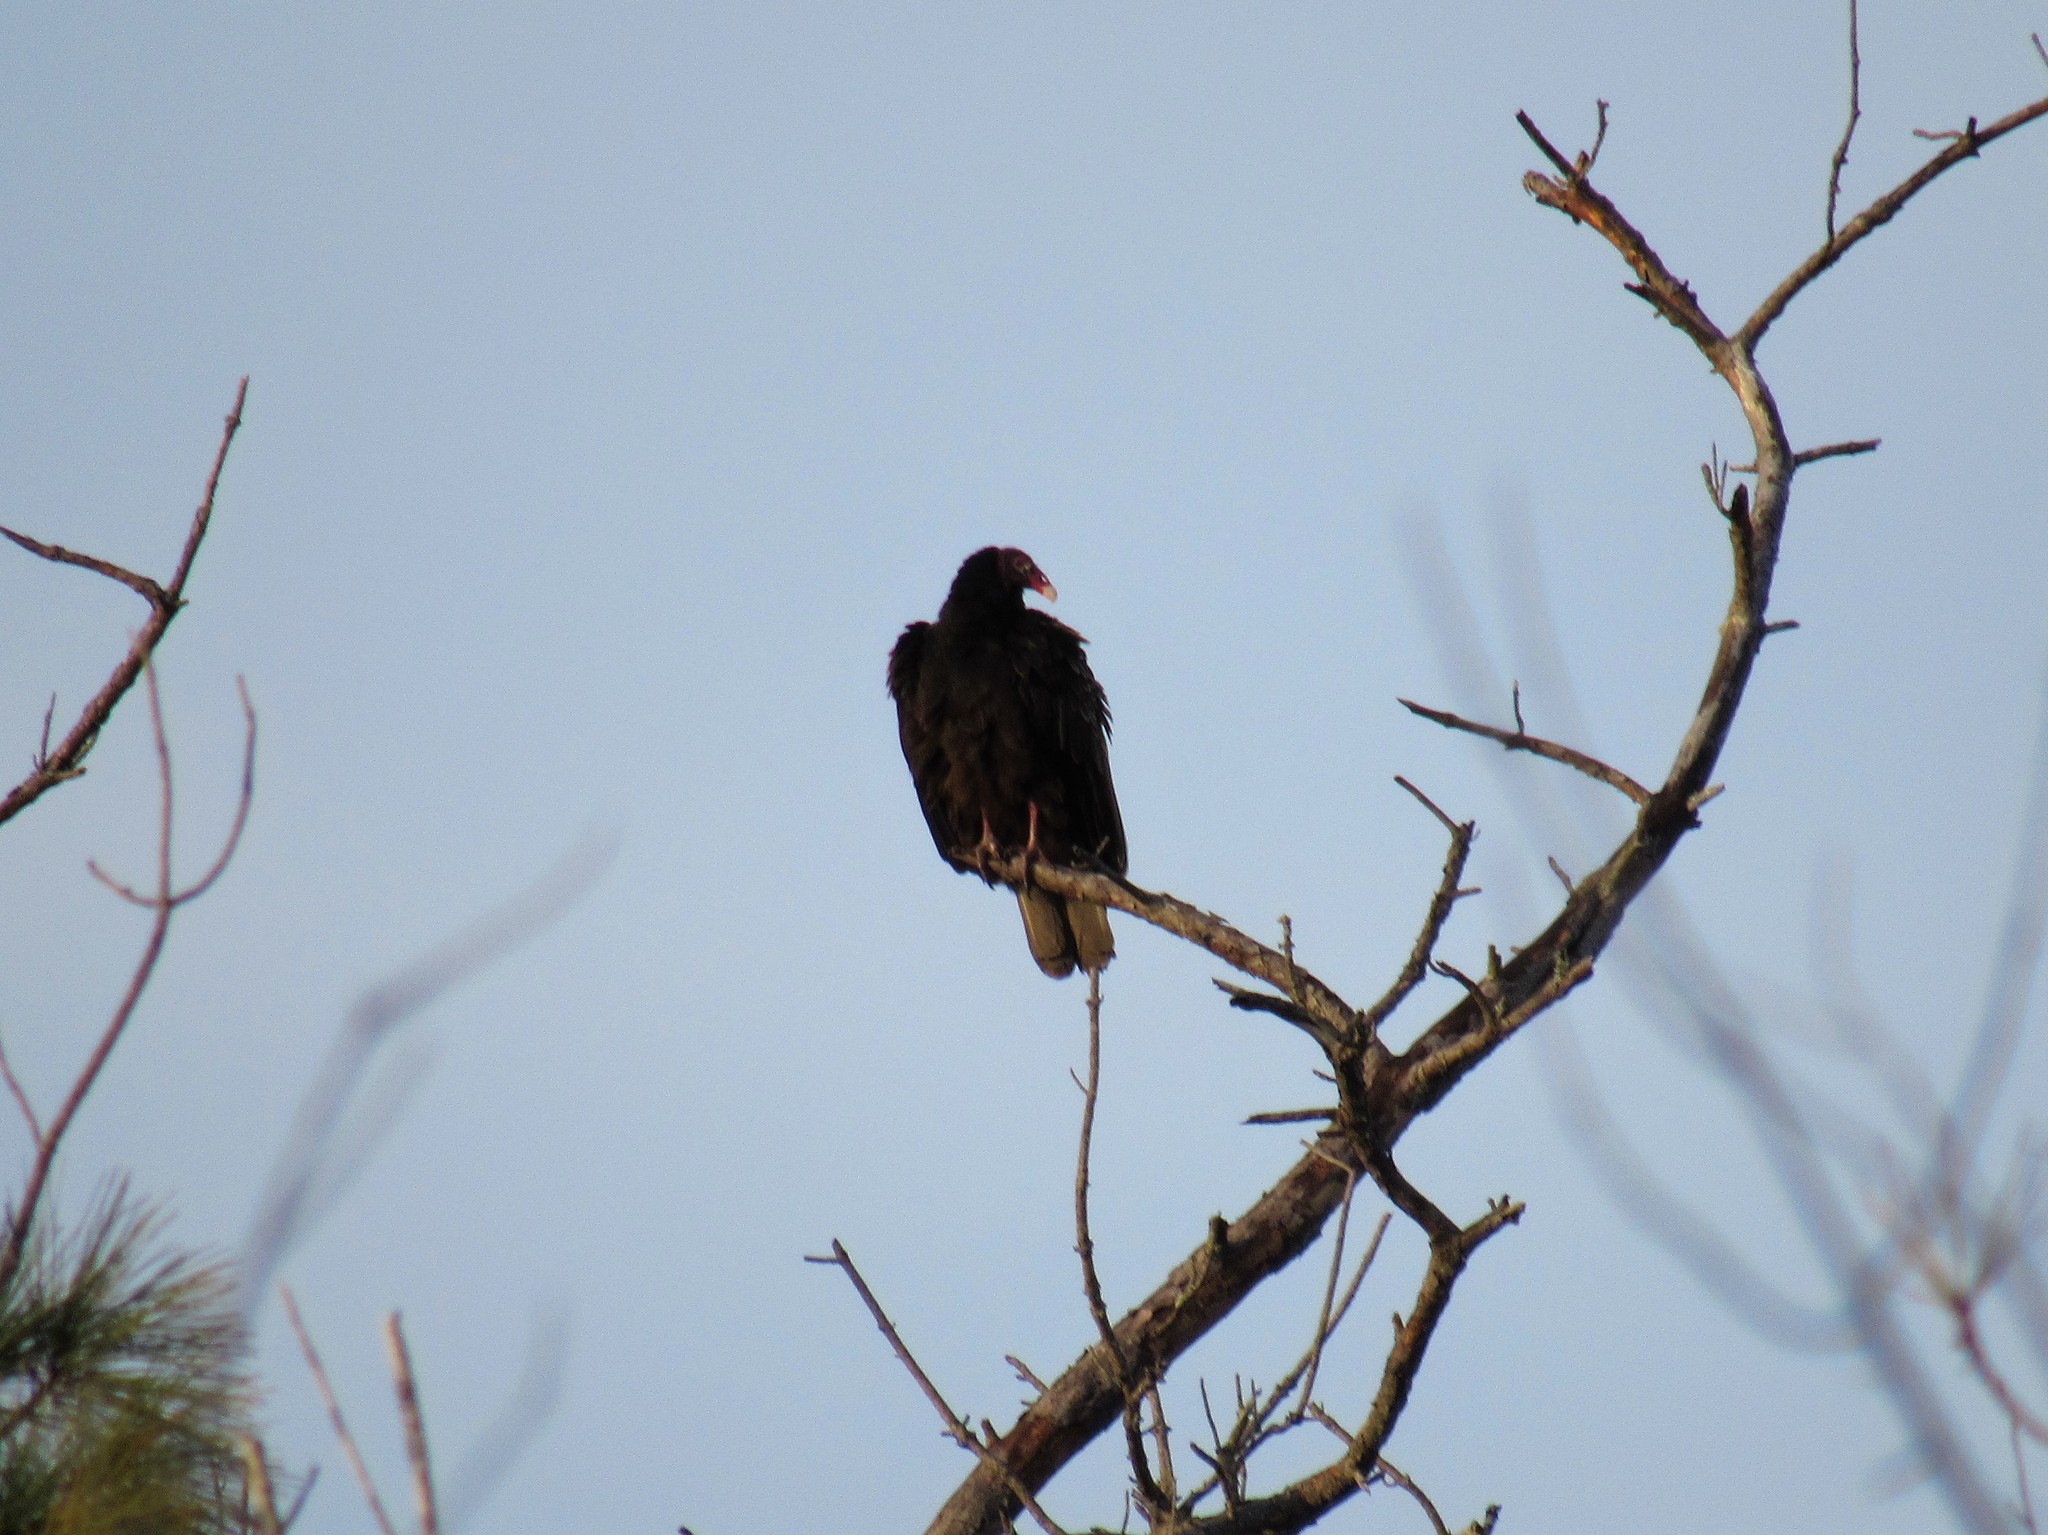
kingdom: Animalia
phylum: Chordata
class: Aves
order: Accipitriformes
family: Cathartidae
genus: Cathartes
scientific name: Cathartes aura
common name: Turkey vulture
